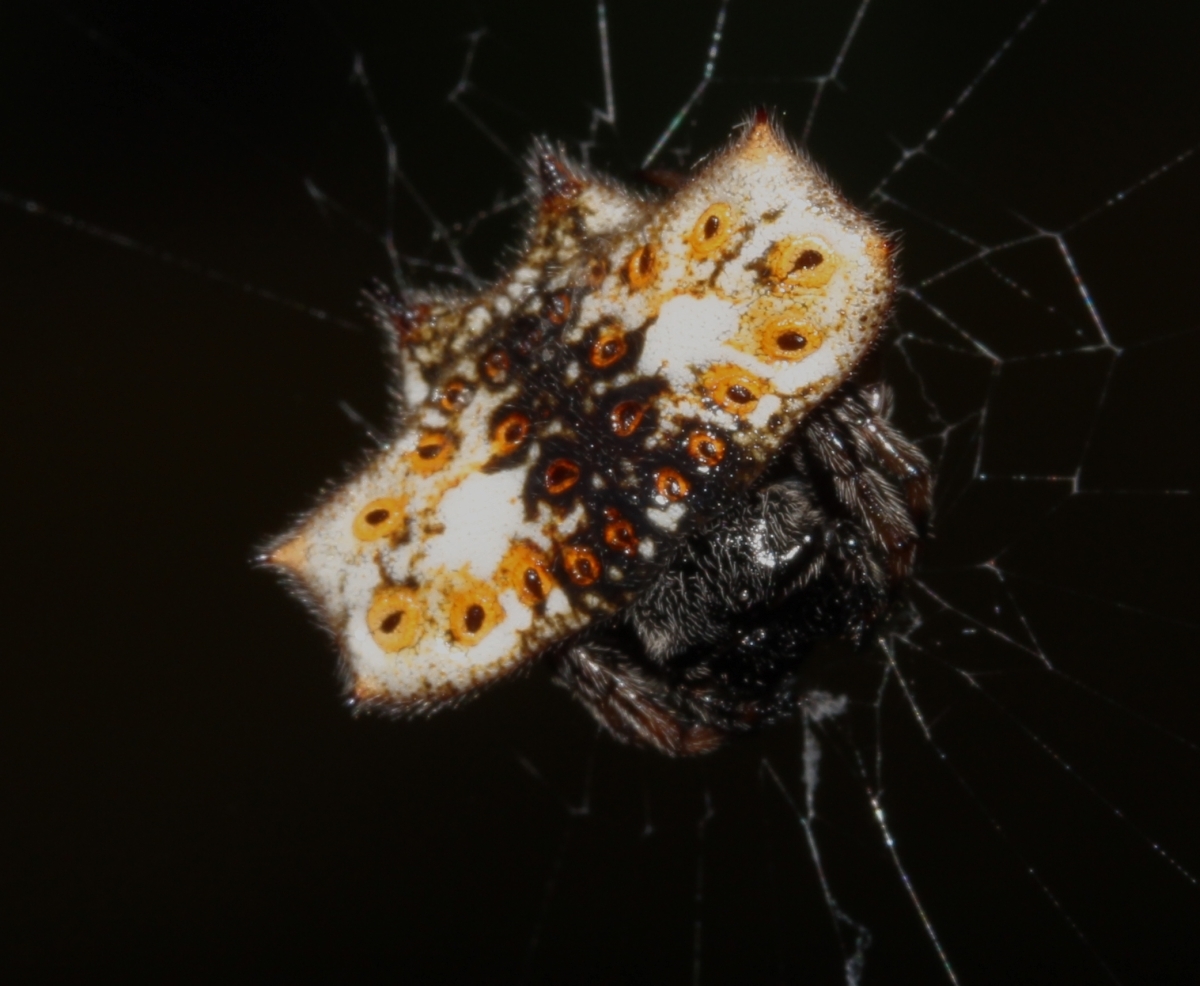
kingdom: Animalia
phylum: Arthropoda
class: Arachnida
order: Araneae
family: Araneidae
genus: Gasteracantha
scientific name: Gasteracantha cancriformis
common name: Orb weavers
